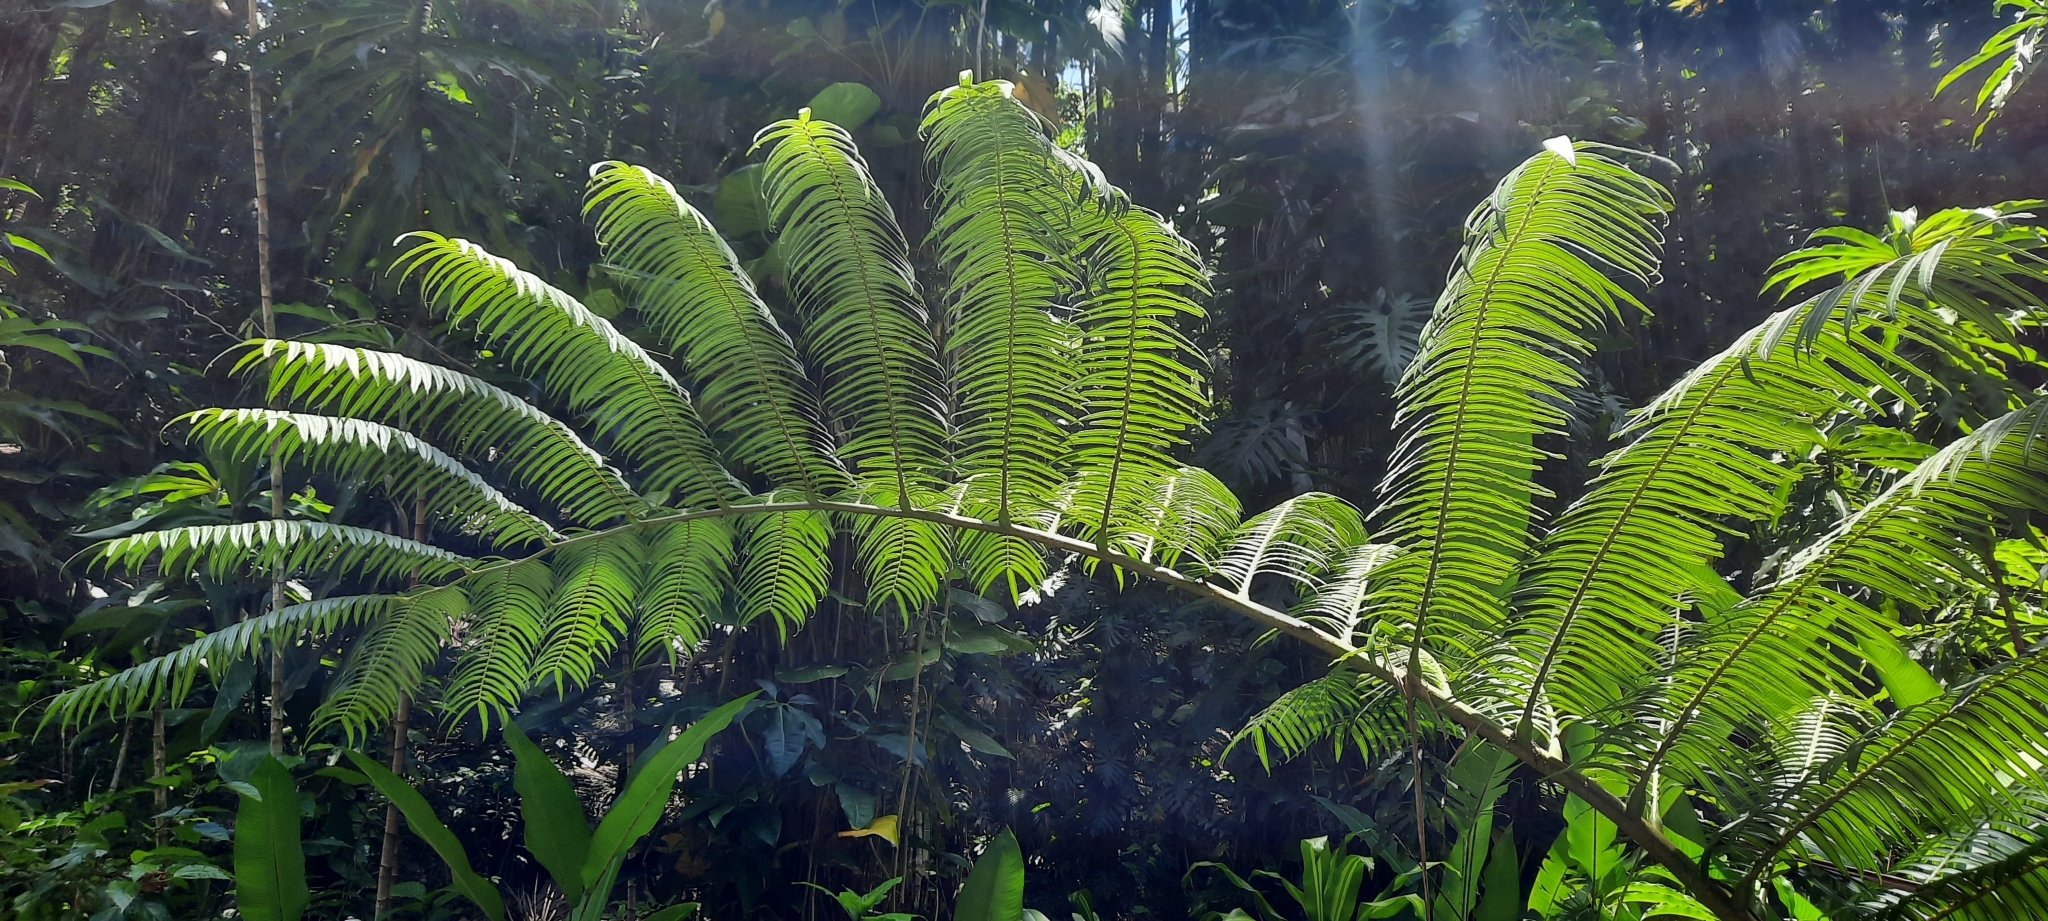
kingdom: Plantae
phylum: Tracheophyta
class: Polypodiopsida
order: Marattiales
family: Marattiaceae
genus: Angiopteris
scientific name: Angiopteris evecta
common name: Mule's-foot fern
